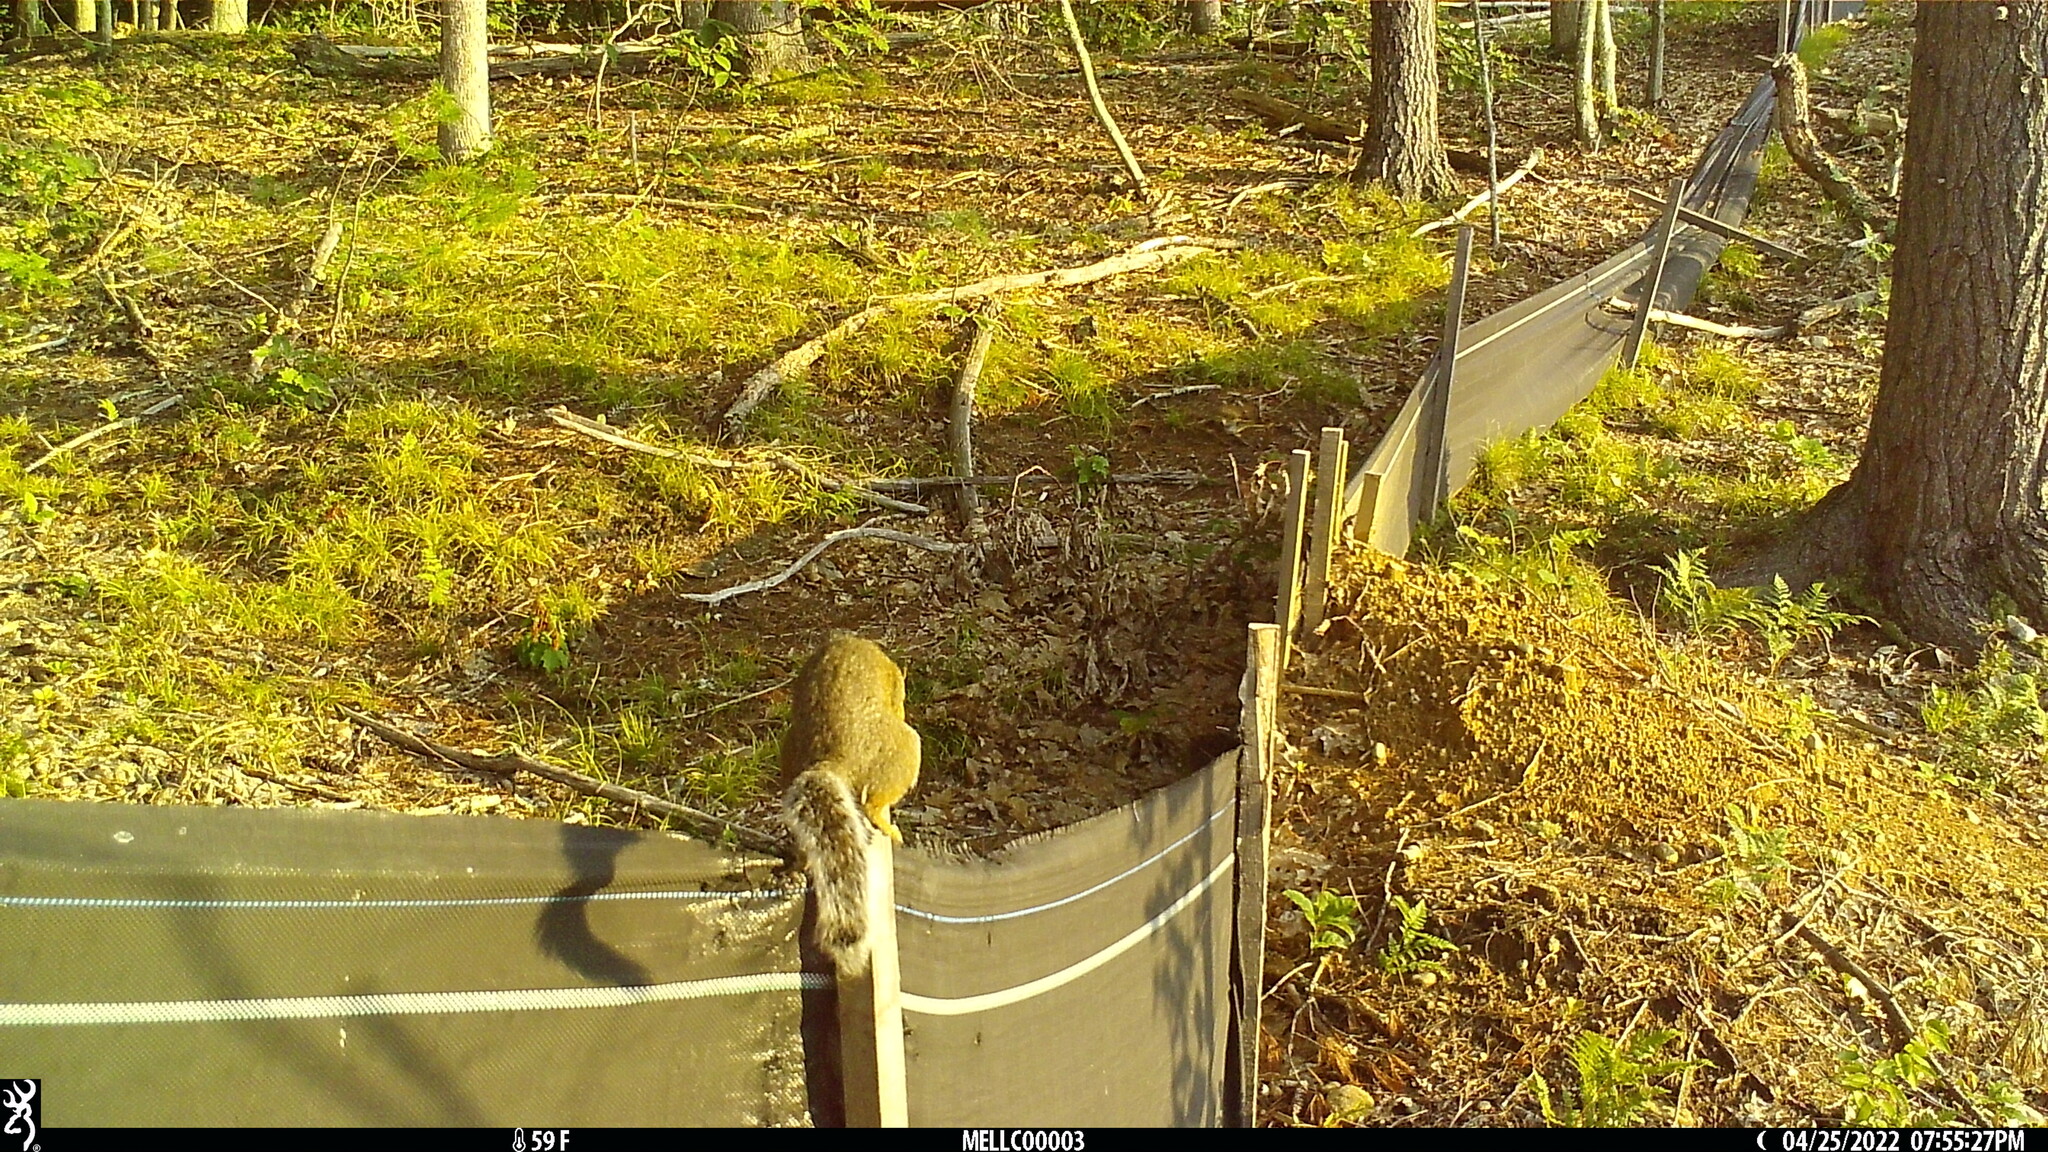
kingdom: Animalia
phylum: Chordata
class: Mammalia
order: Rodentia
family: Sciuridae
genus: Sciurus
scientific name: Sciurus carolinensis
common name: Eastern gray squirrel
